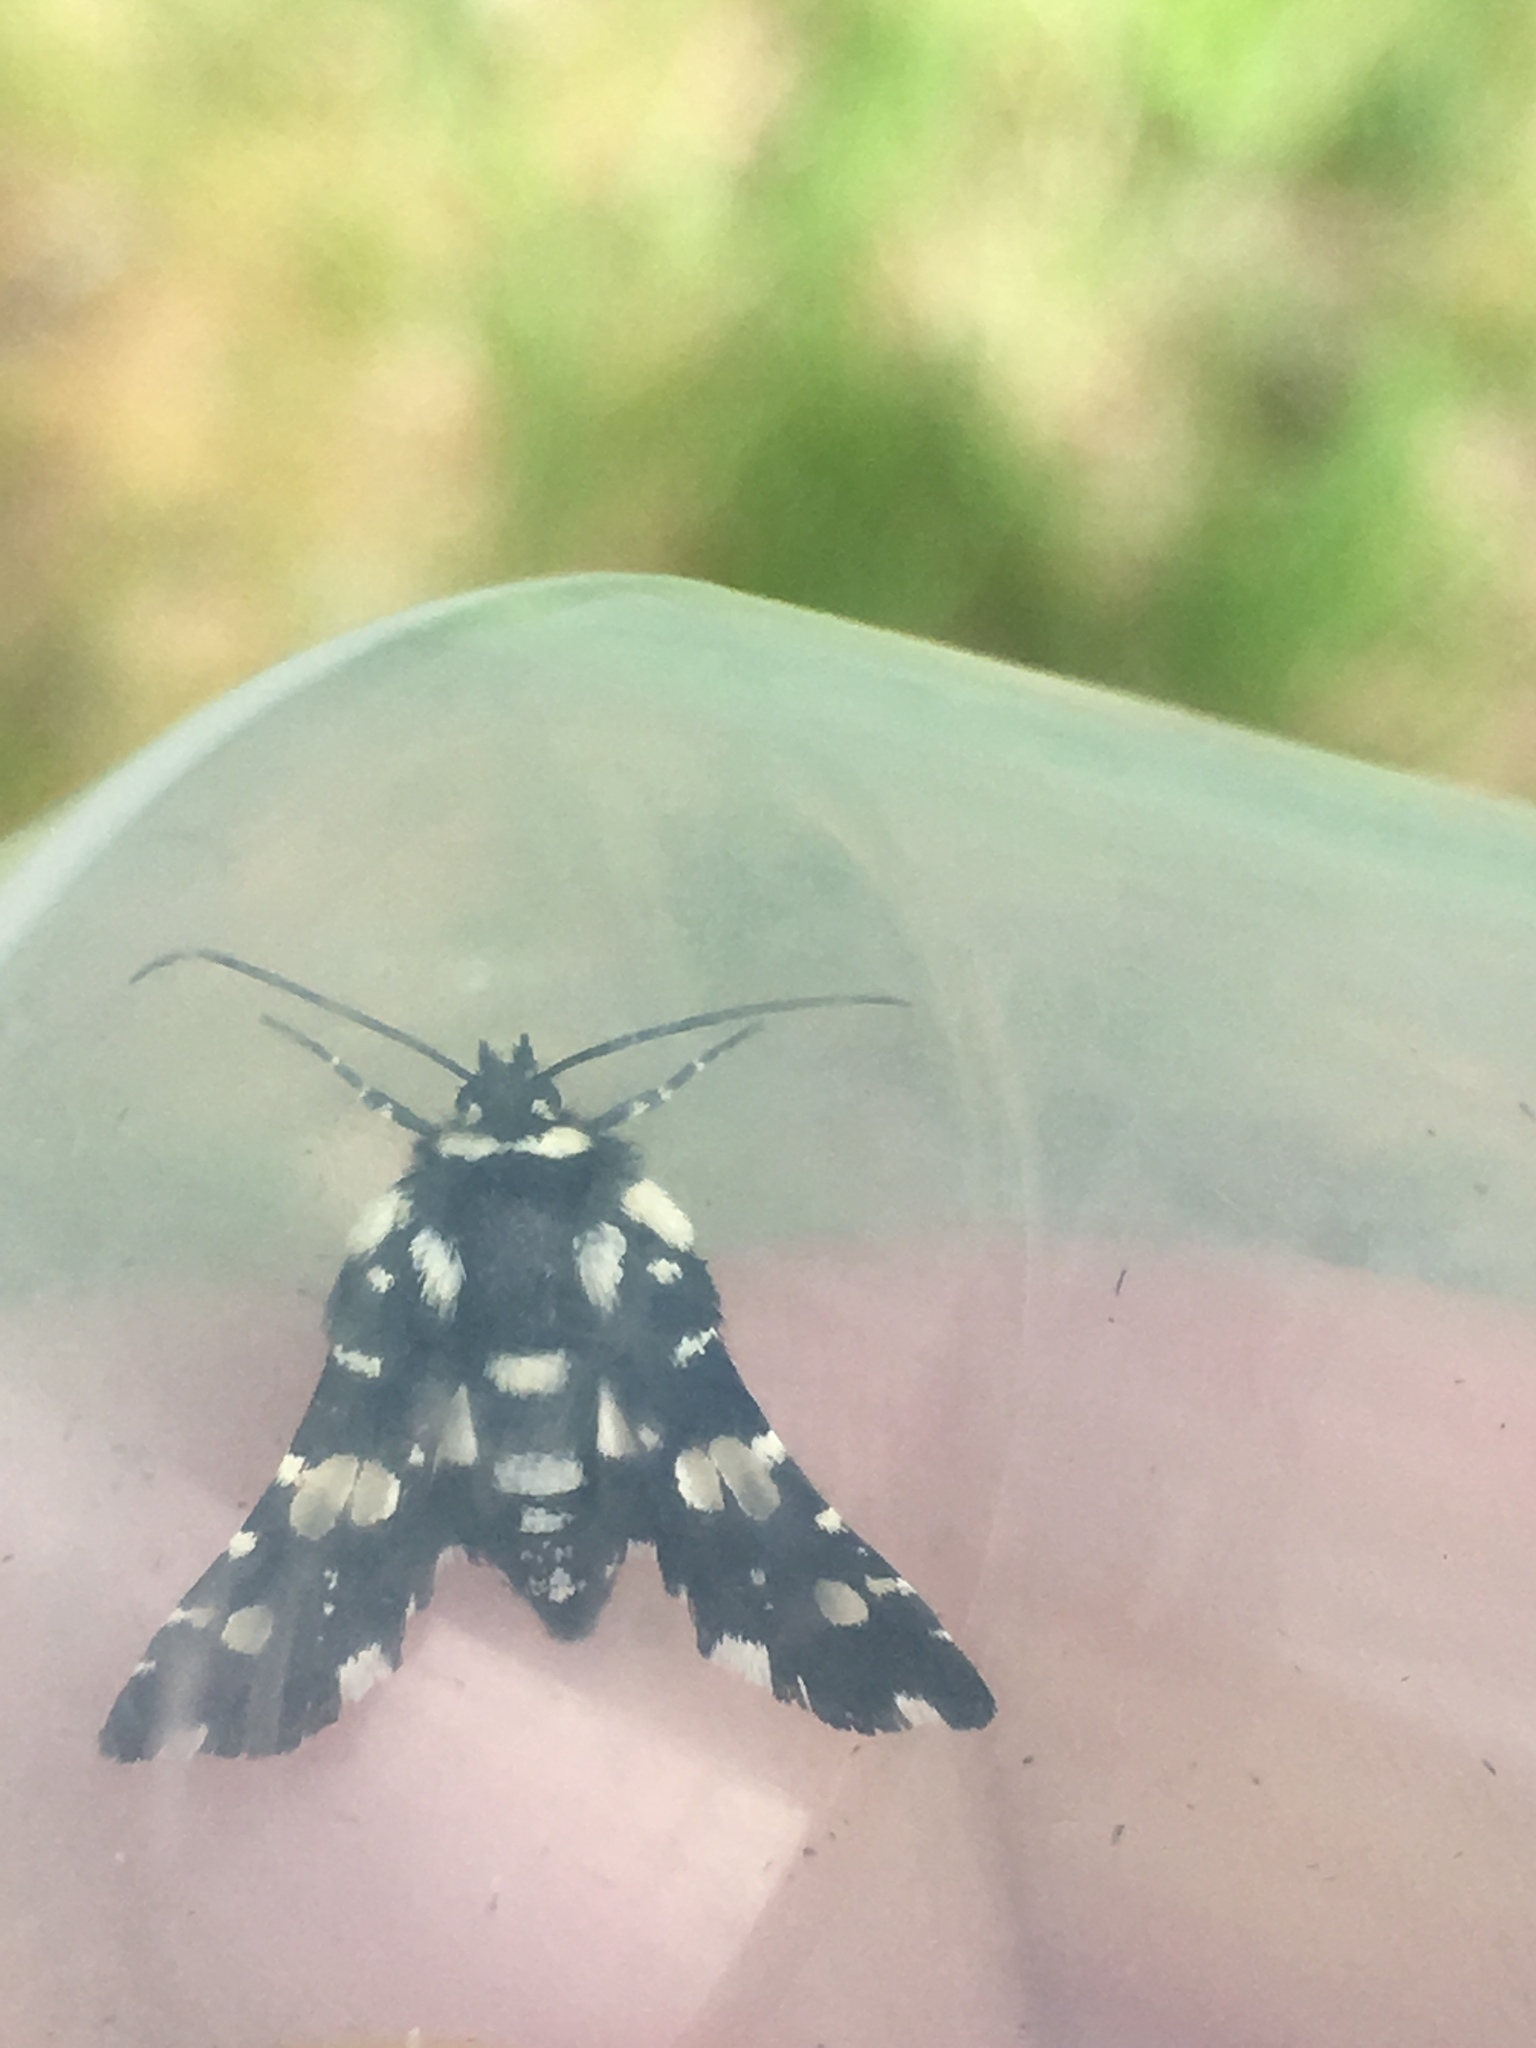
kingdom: Animalia
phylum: Arthropoda
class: Insecta
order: Lepidoptera
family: Thyrididae
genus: Pseudothyris
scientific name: Pseudothyris sepulchralis
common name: Mournful thyris moth
